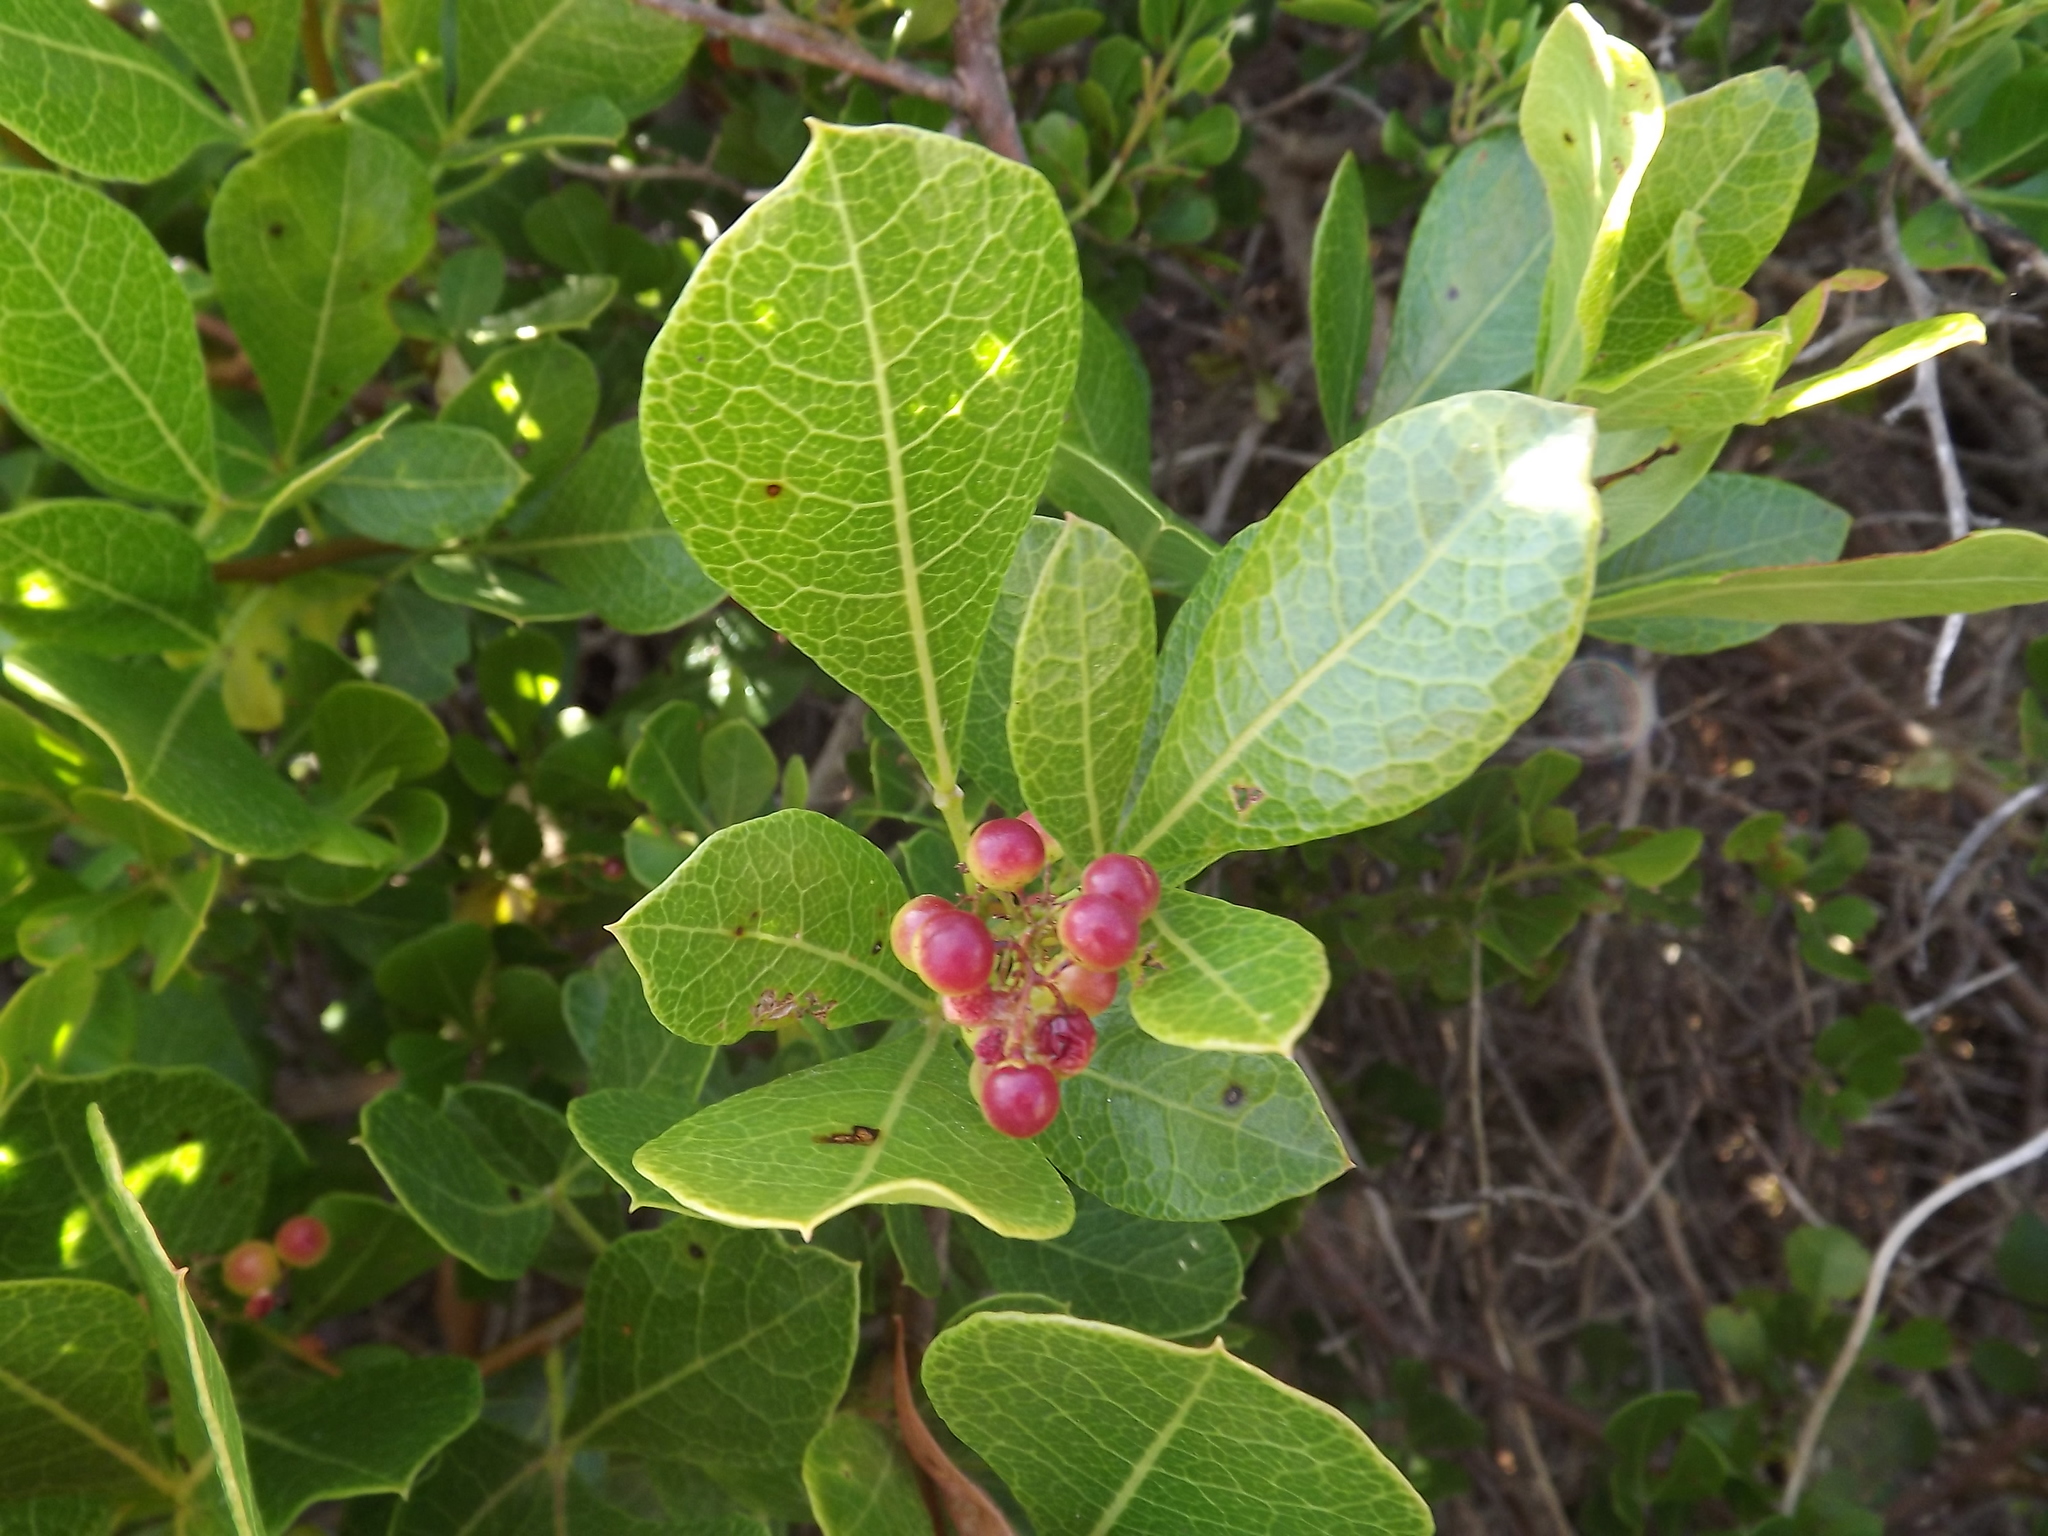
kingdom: Plantae
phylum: Tracheophyta
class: Magnoliopsida
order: Sapindales
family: Anacardiaceae
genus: Searsia
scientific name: Searsia laevigata
